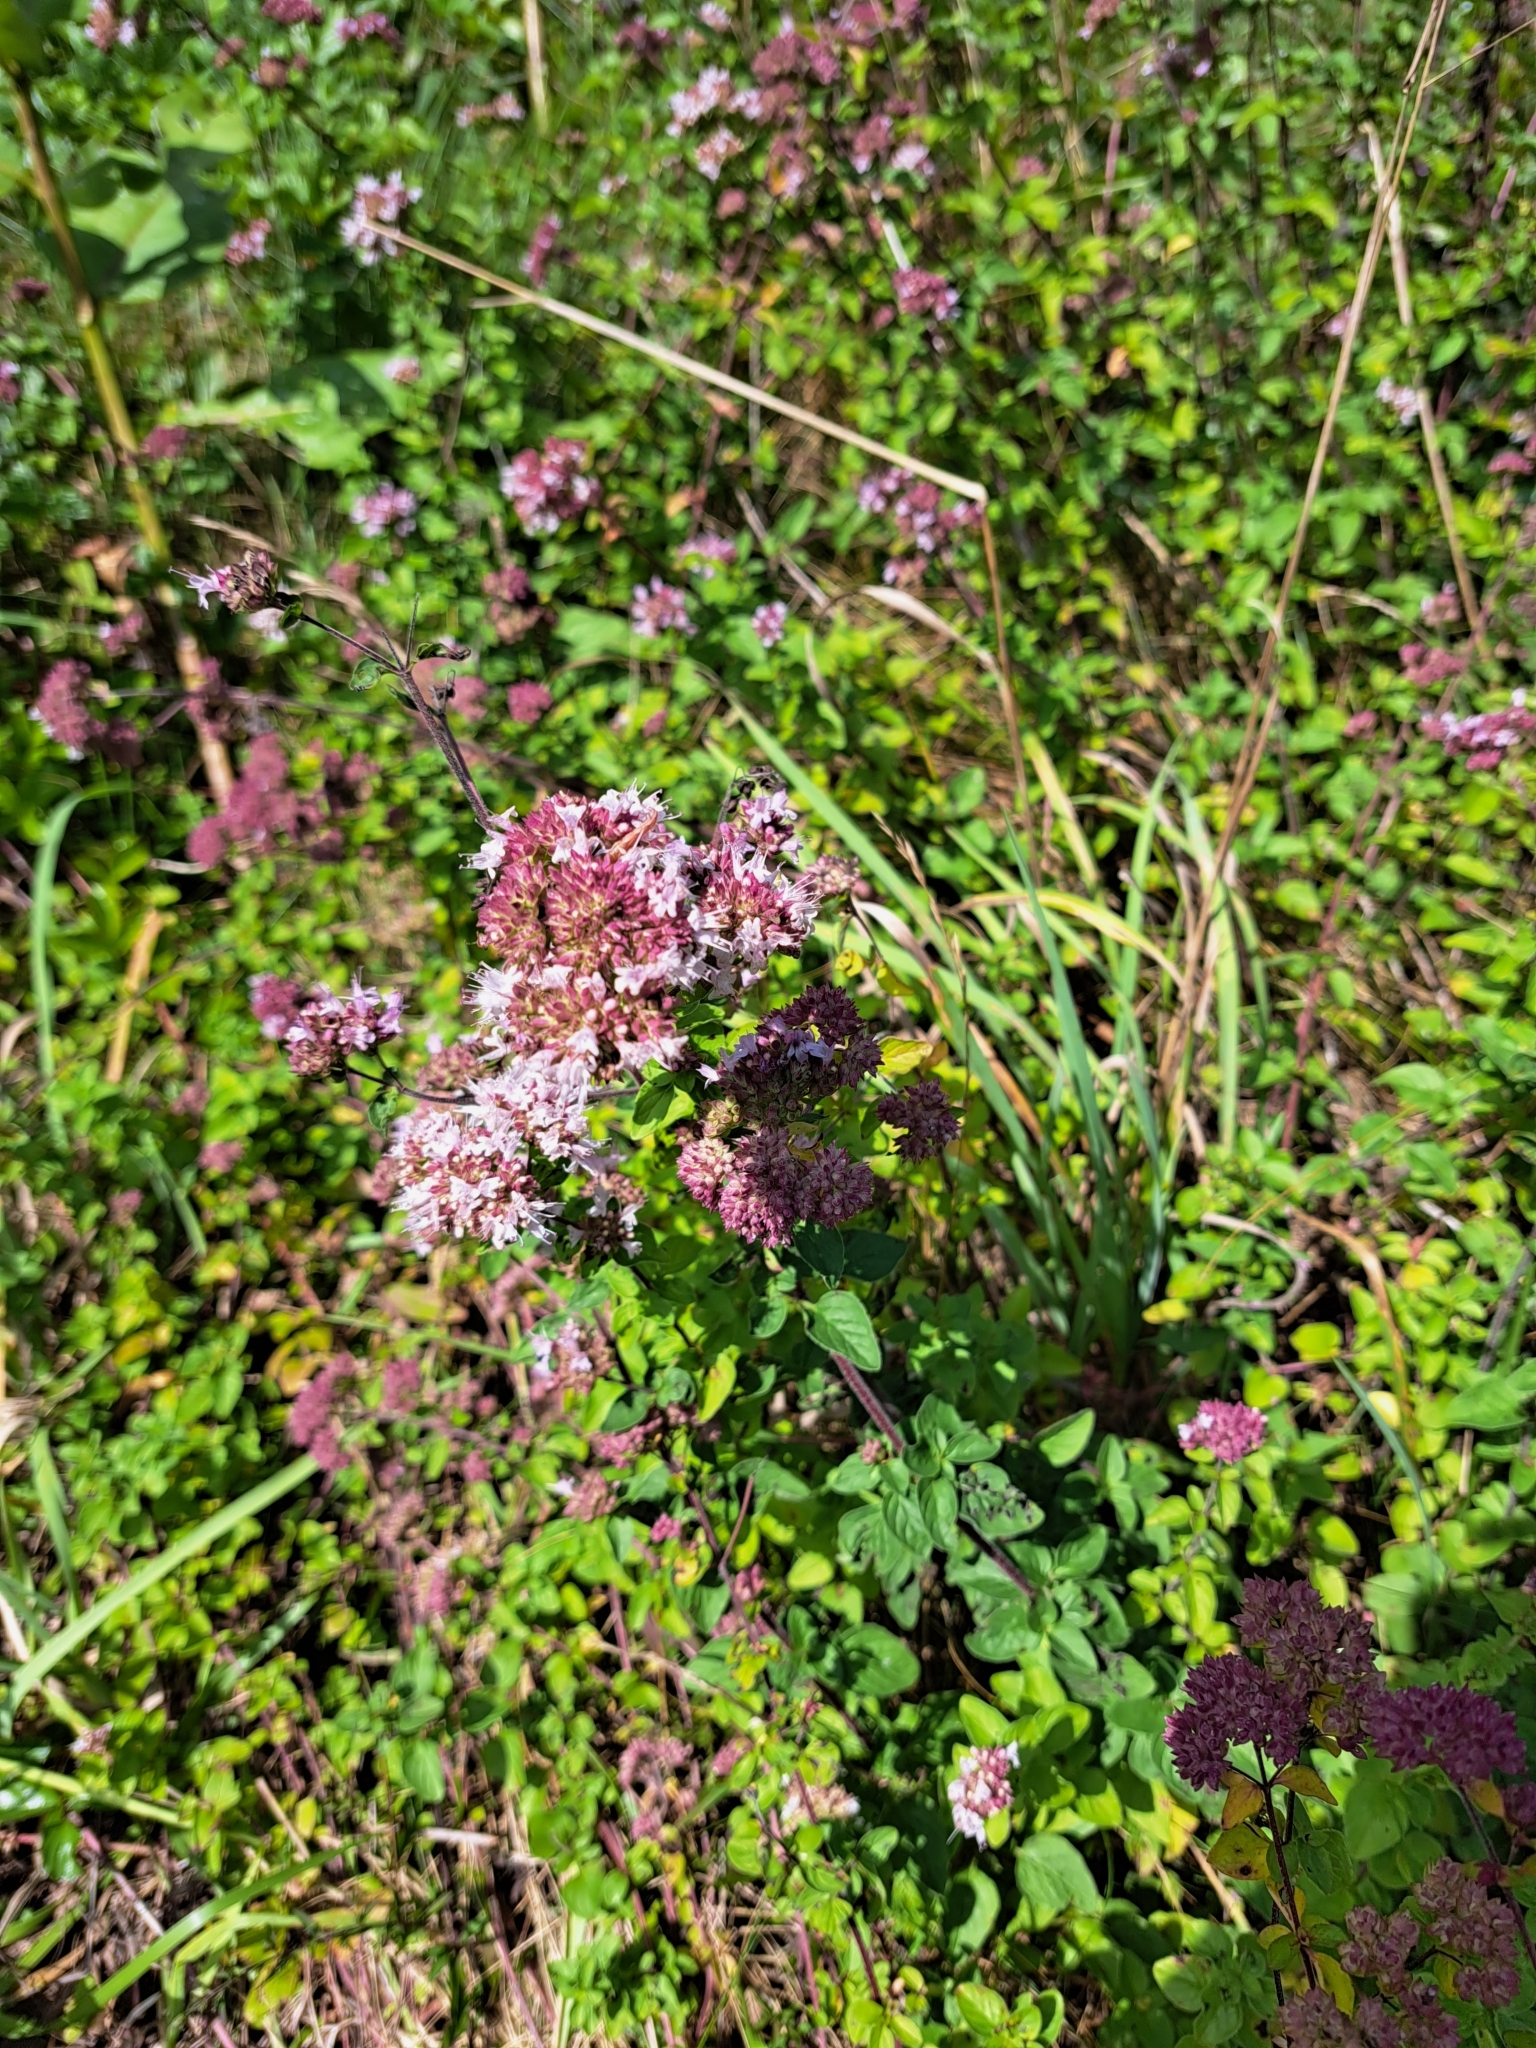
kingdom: Plantae
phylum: Tracheophyta
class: Magnoliopsida
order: Lamiales
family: Lamiaceae
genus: Origanum
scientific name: Origanum vulgare
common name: Wild marjoram
